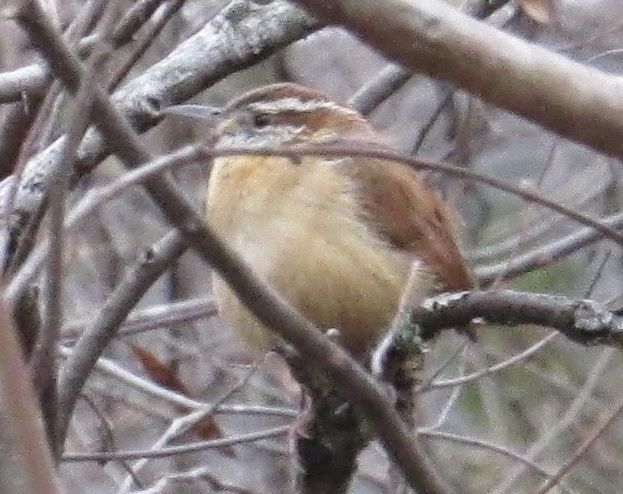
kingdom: Animalia
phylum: Chordata
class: Aves
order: Passeriformes
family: Troglodytidae
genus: Thryothorus
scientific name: Thryothorus ludovicianus
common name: Carolina wren
